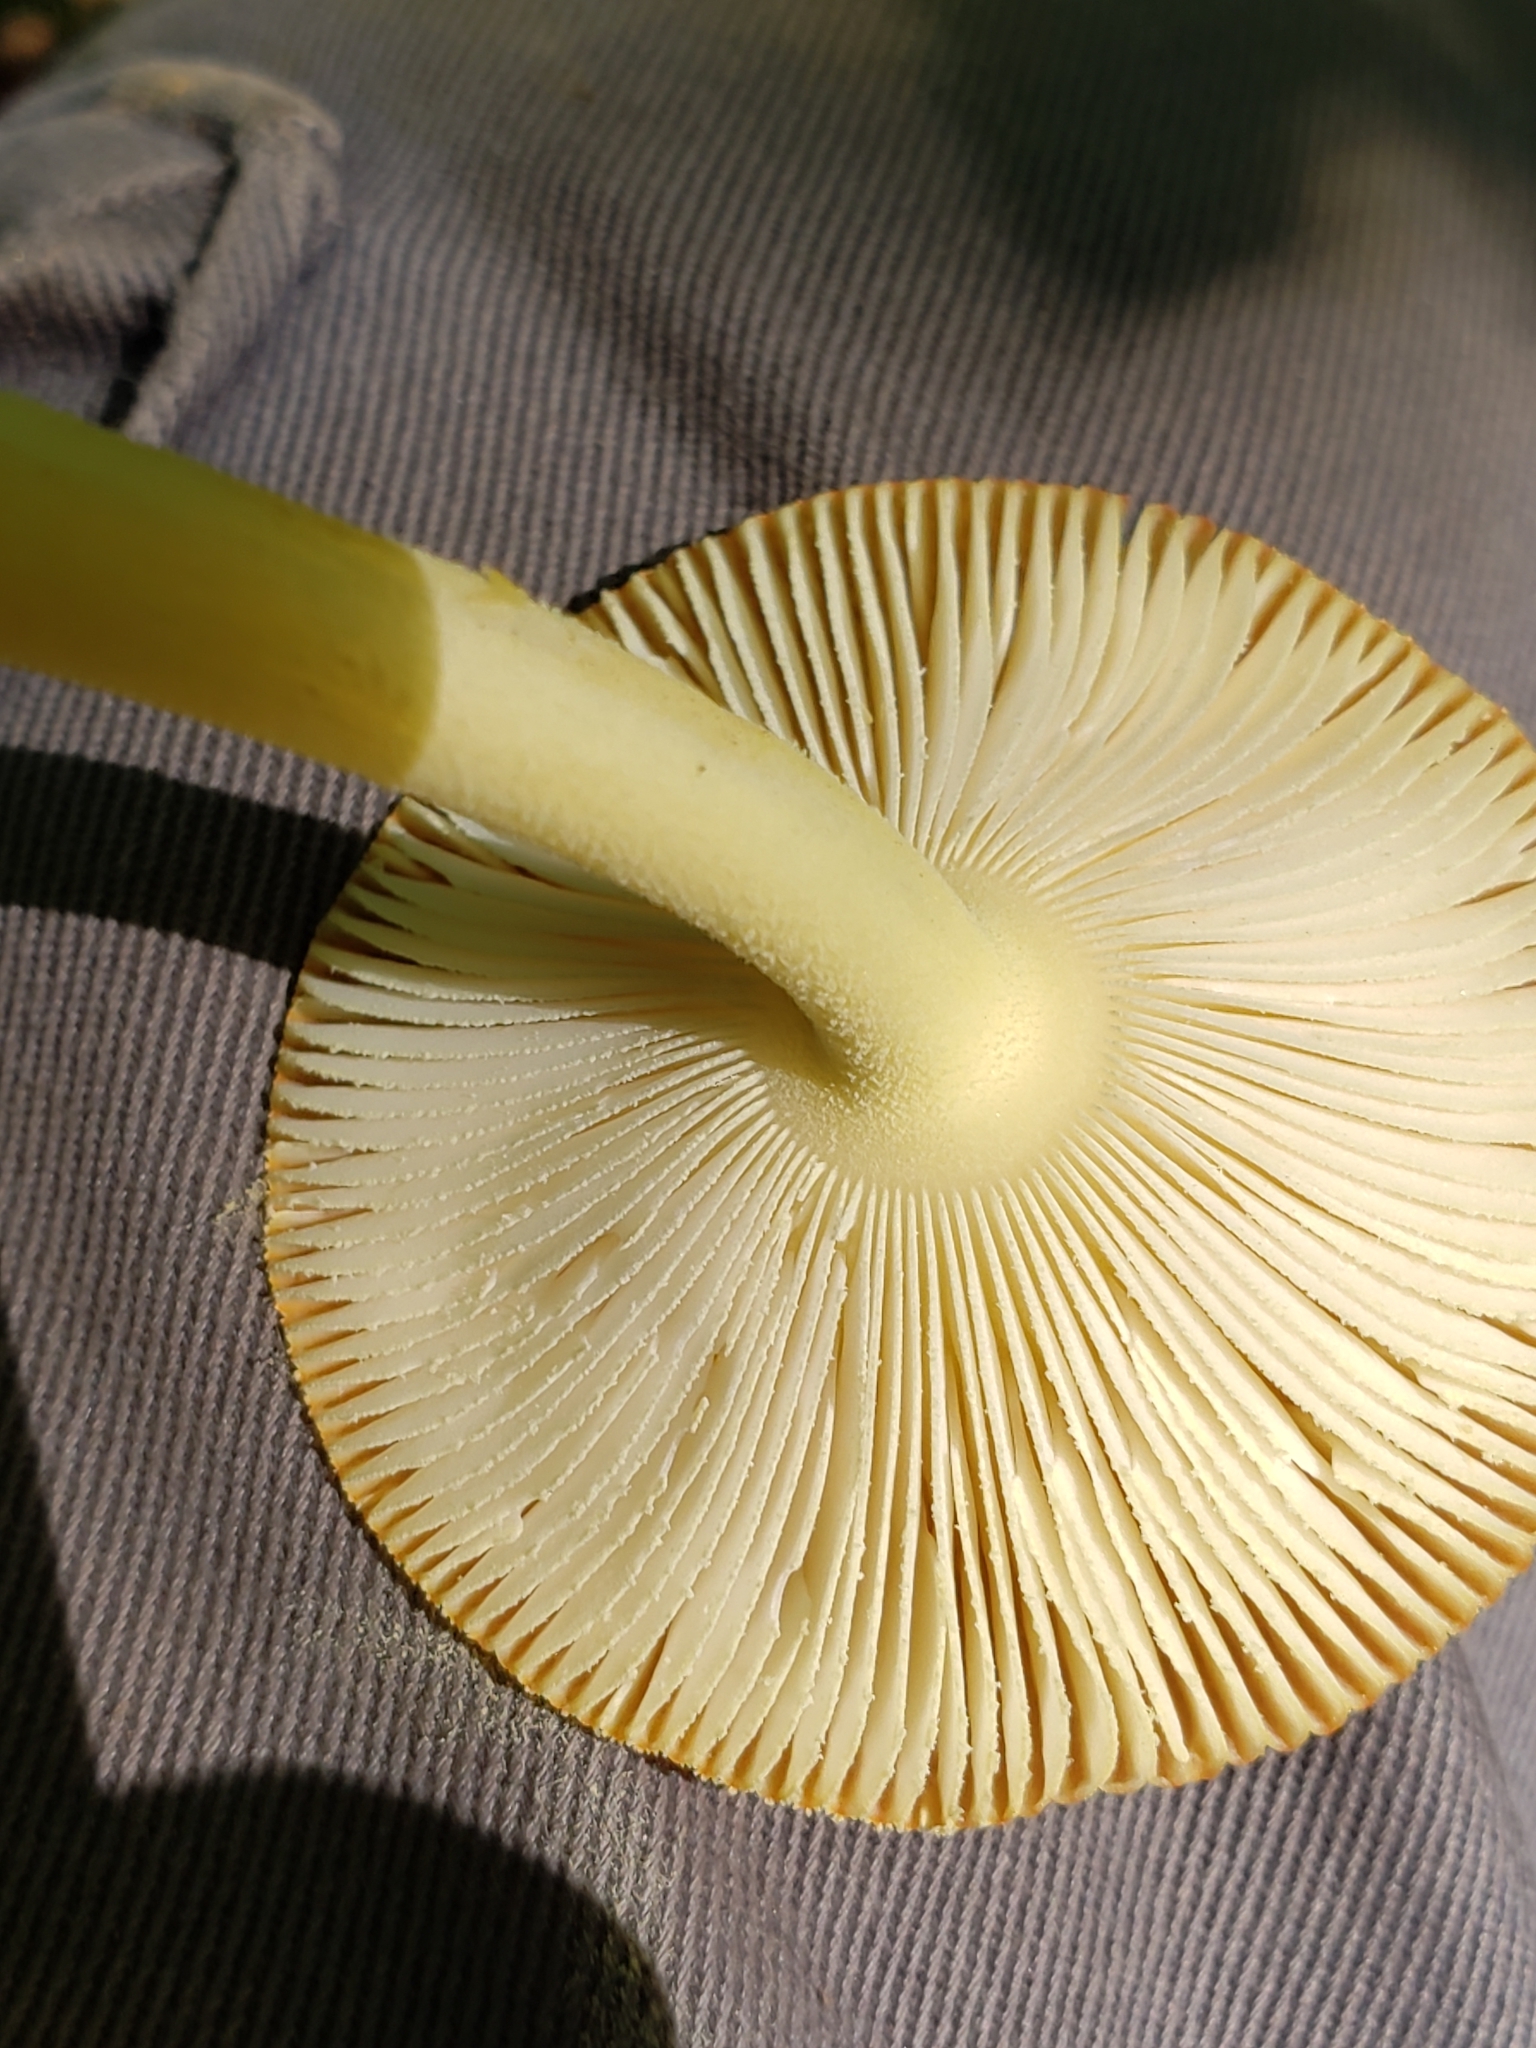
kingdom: Fungi
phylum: Basidiomycota
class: Agaricomycetes
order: Agaricales
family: Amanitaceae
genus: Amanita
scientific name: Amanita parcivolvata
